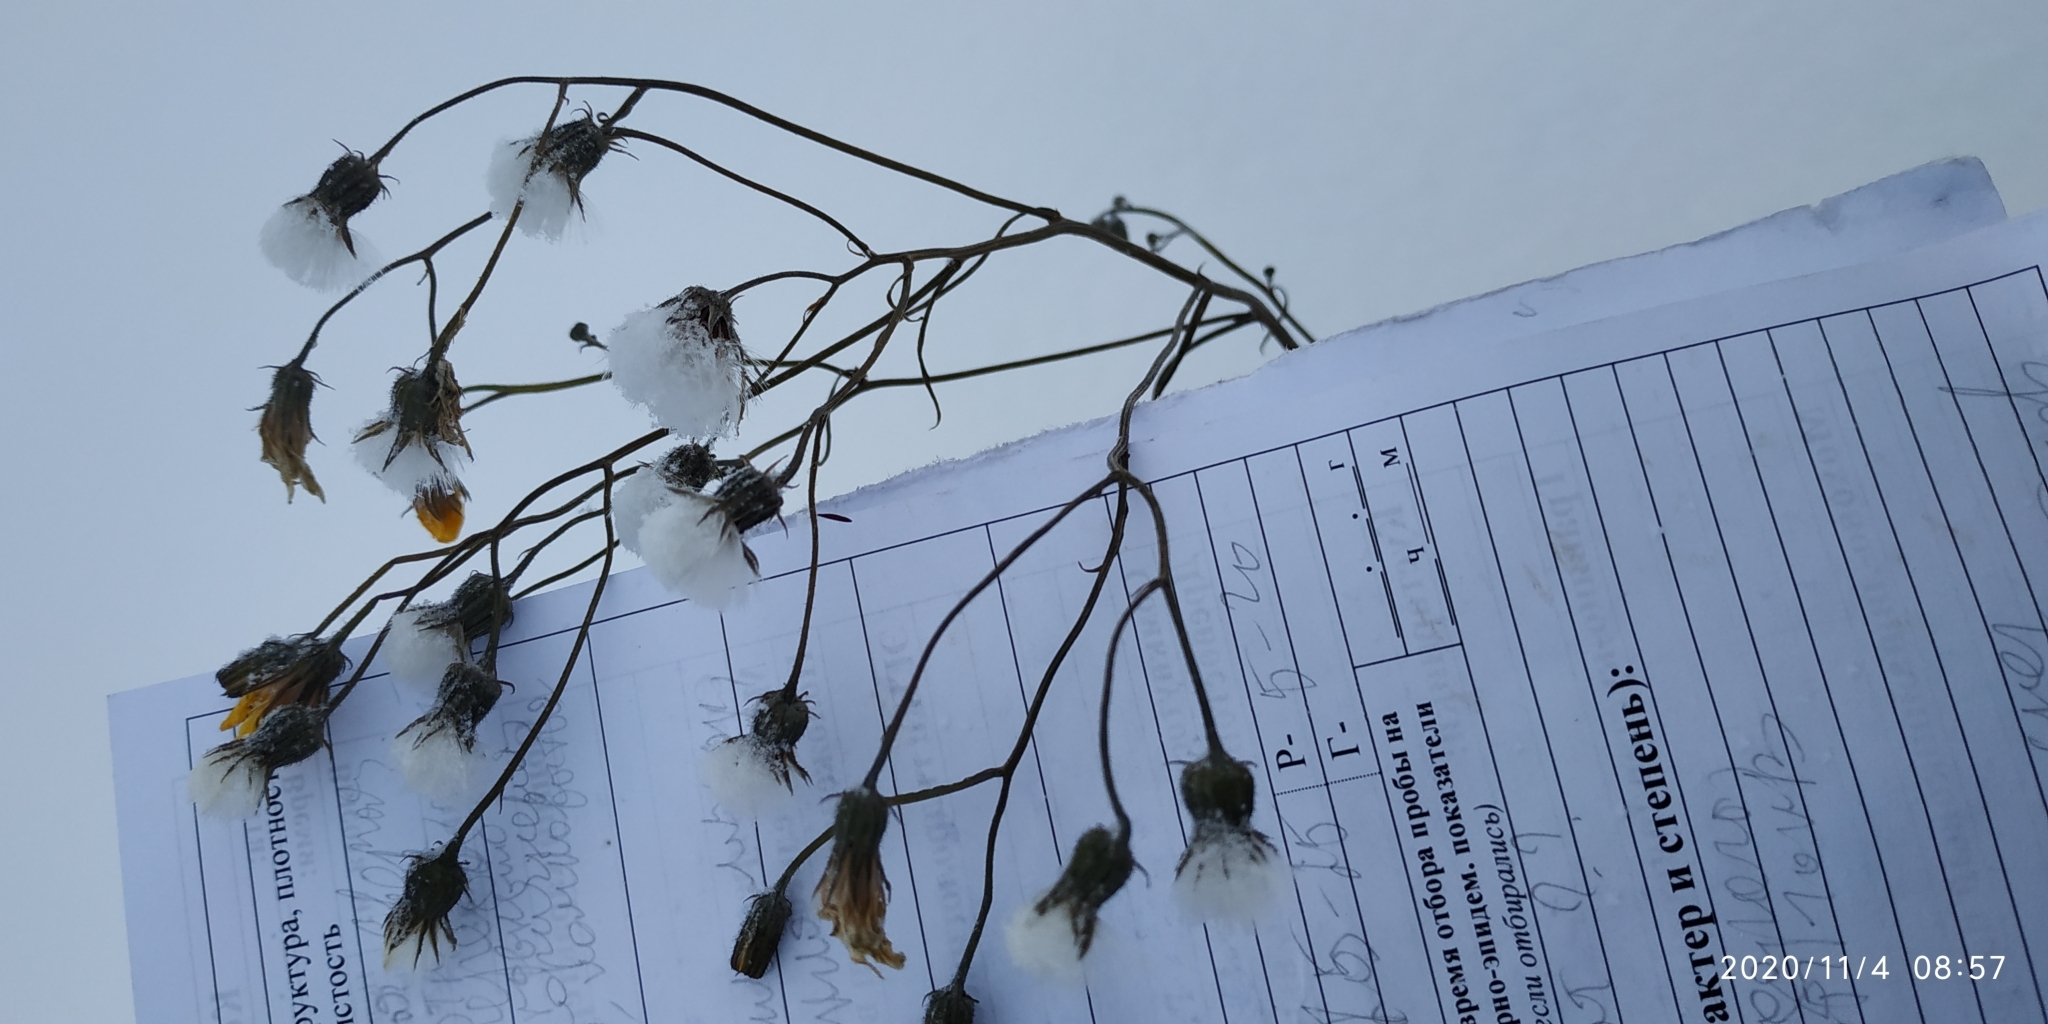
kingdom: Plantae
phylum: Tracheophyta
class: Magnoliopsida
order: Asterales
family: Asteraceae
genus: Crepis
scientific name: Crepis tectorum
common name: Narrow-leaved hawk's-beard
